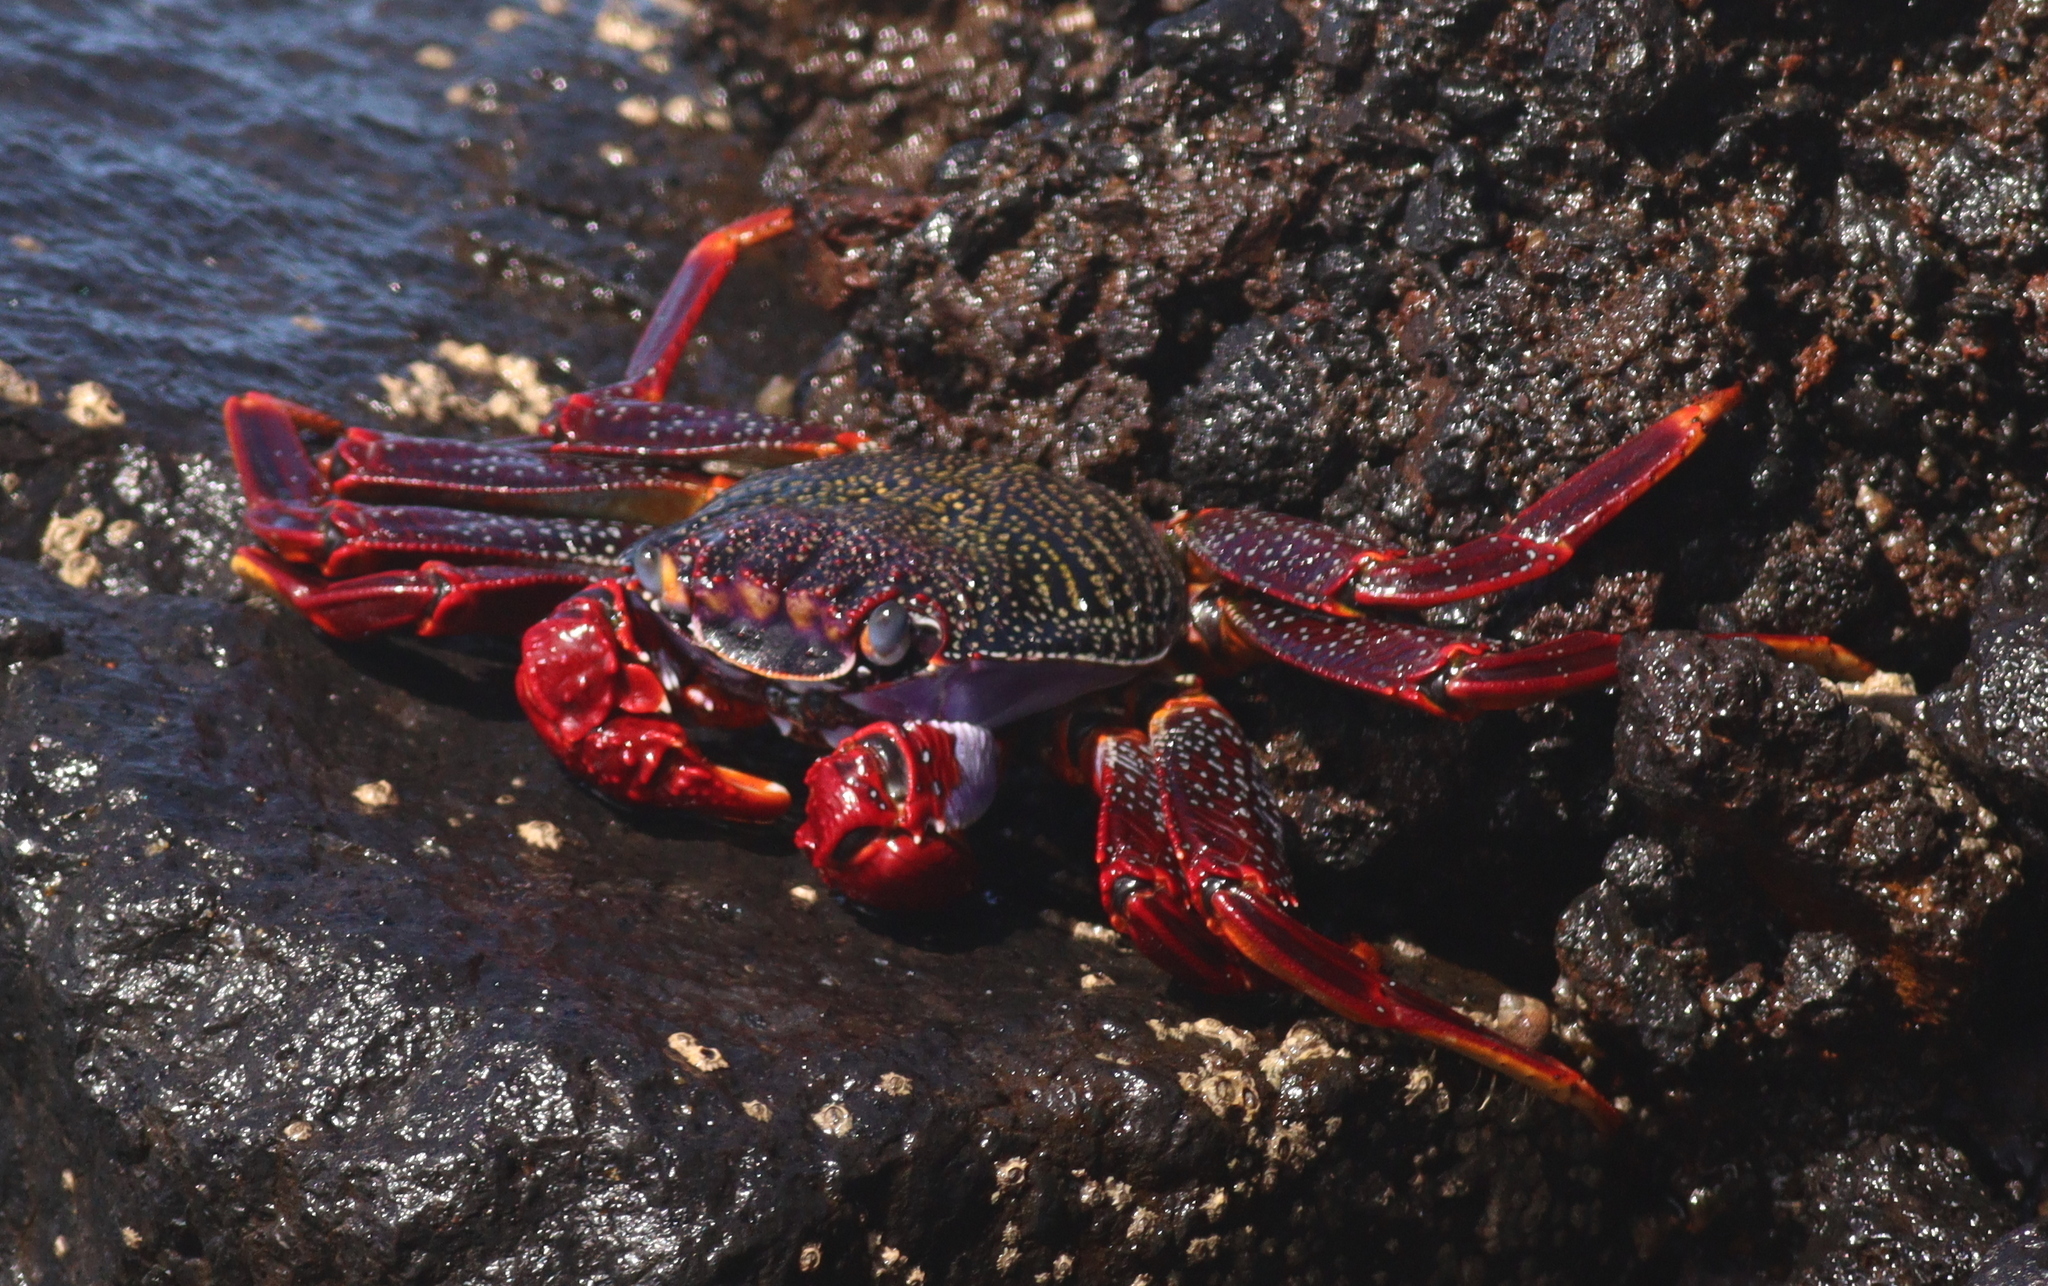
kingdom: Animalia
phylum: Arthropoda
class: Malacostraca
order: Decapoda
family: Grapsidae
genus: Grapsus
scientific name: Grapsus adscensionis
